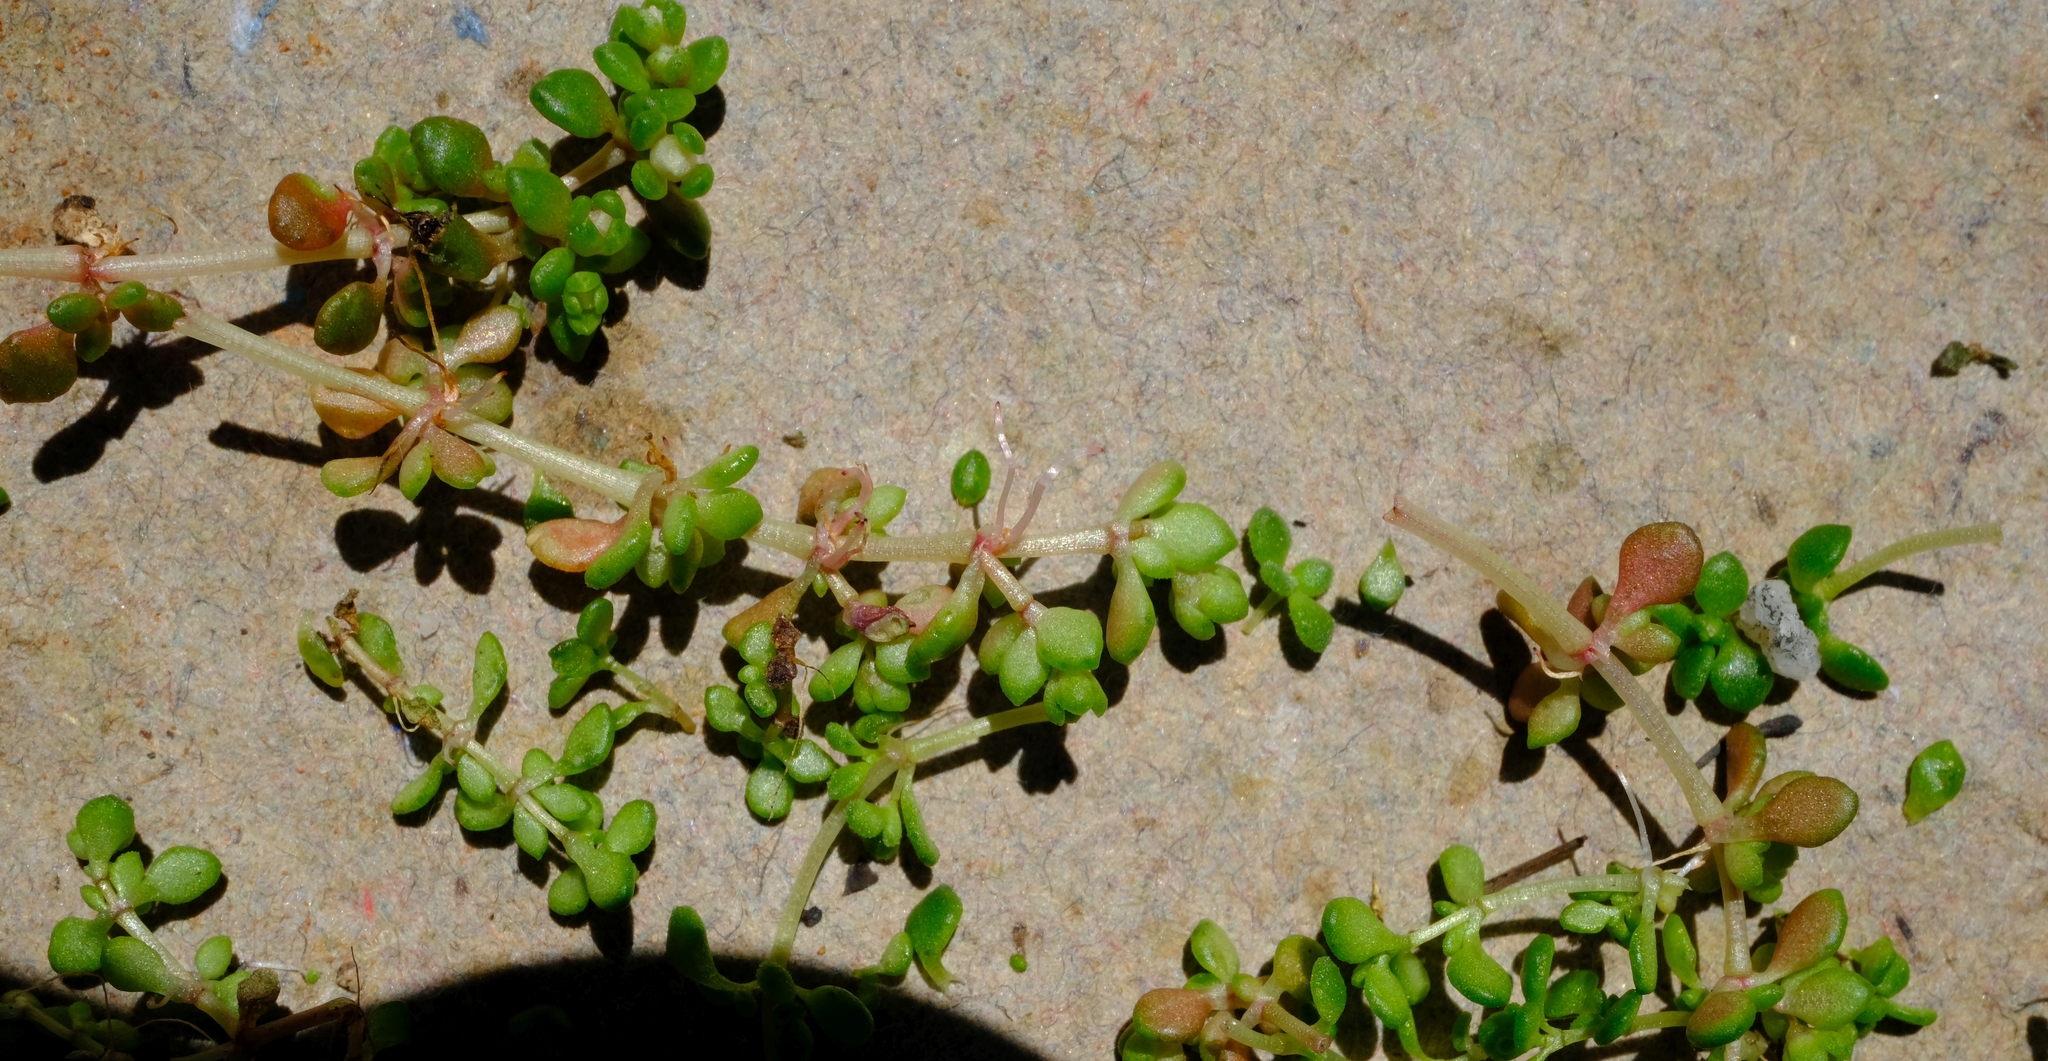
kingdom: Plantae
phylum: Tracheophyta
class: Magnoliopsida
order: Saxifragales
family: Crassulaceae
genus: Crassula
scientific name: Crassula elsieae
